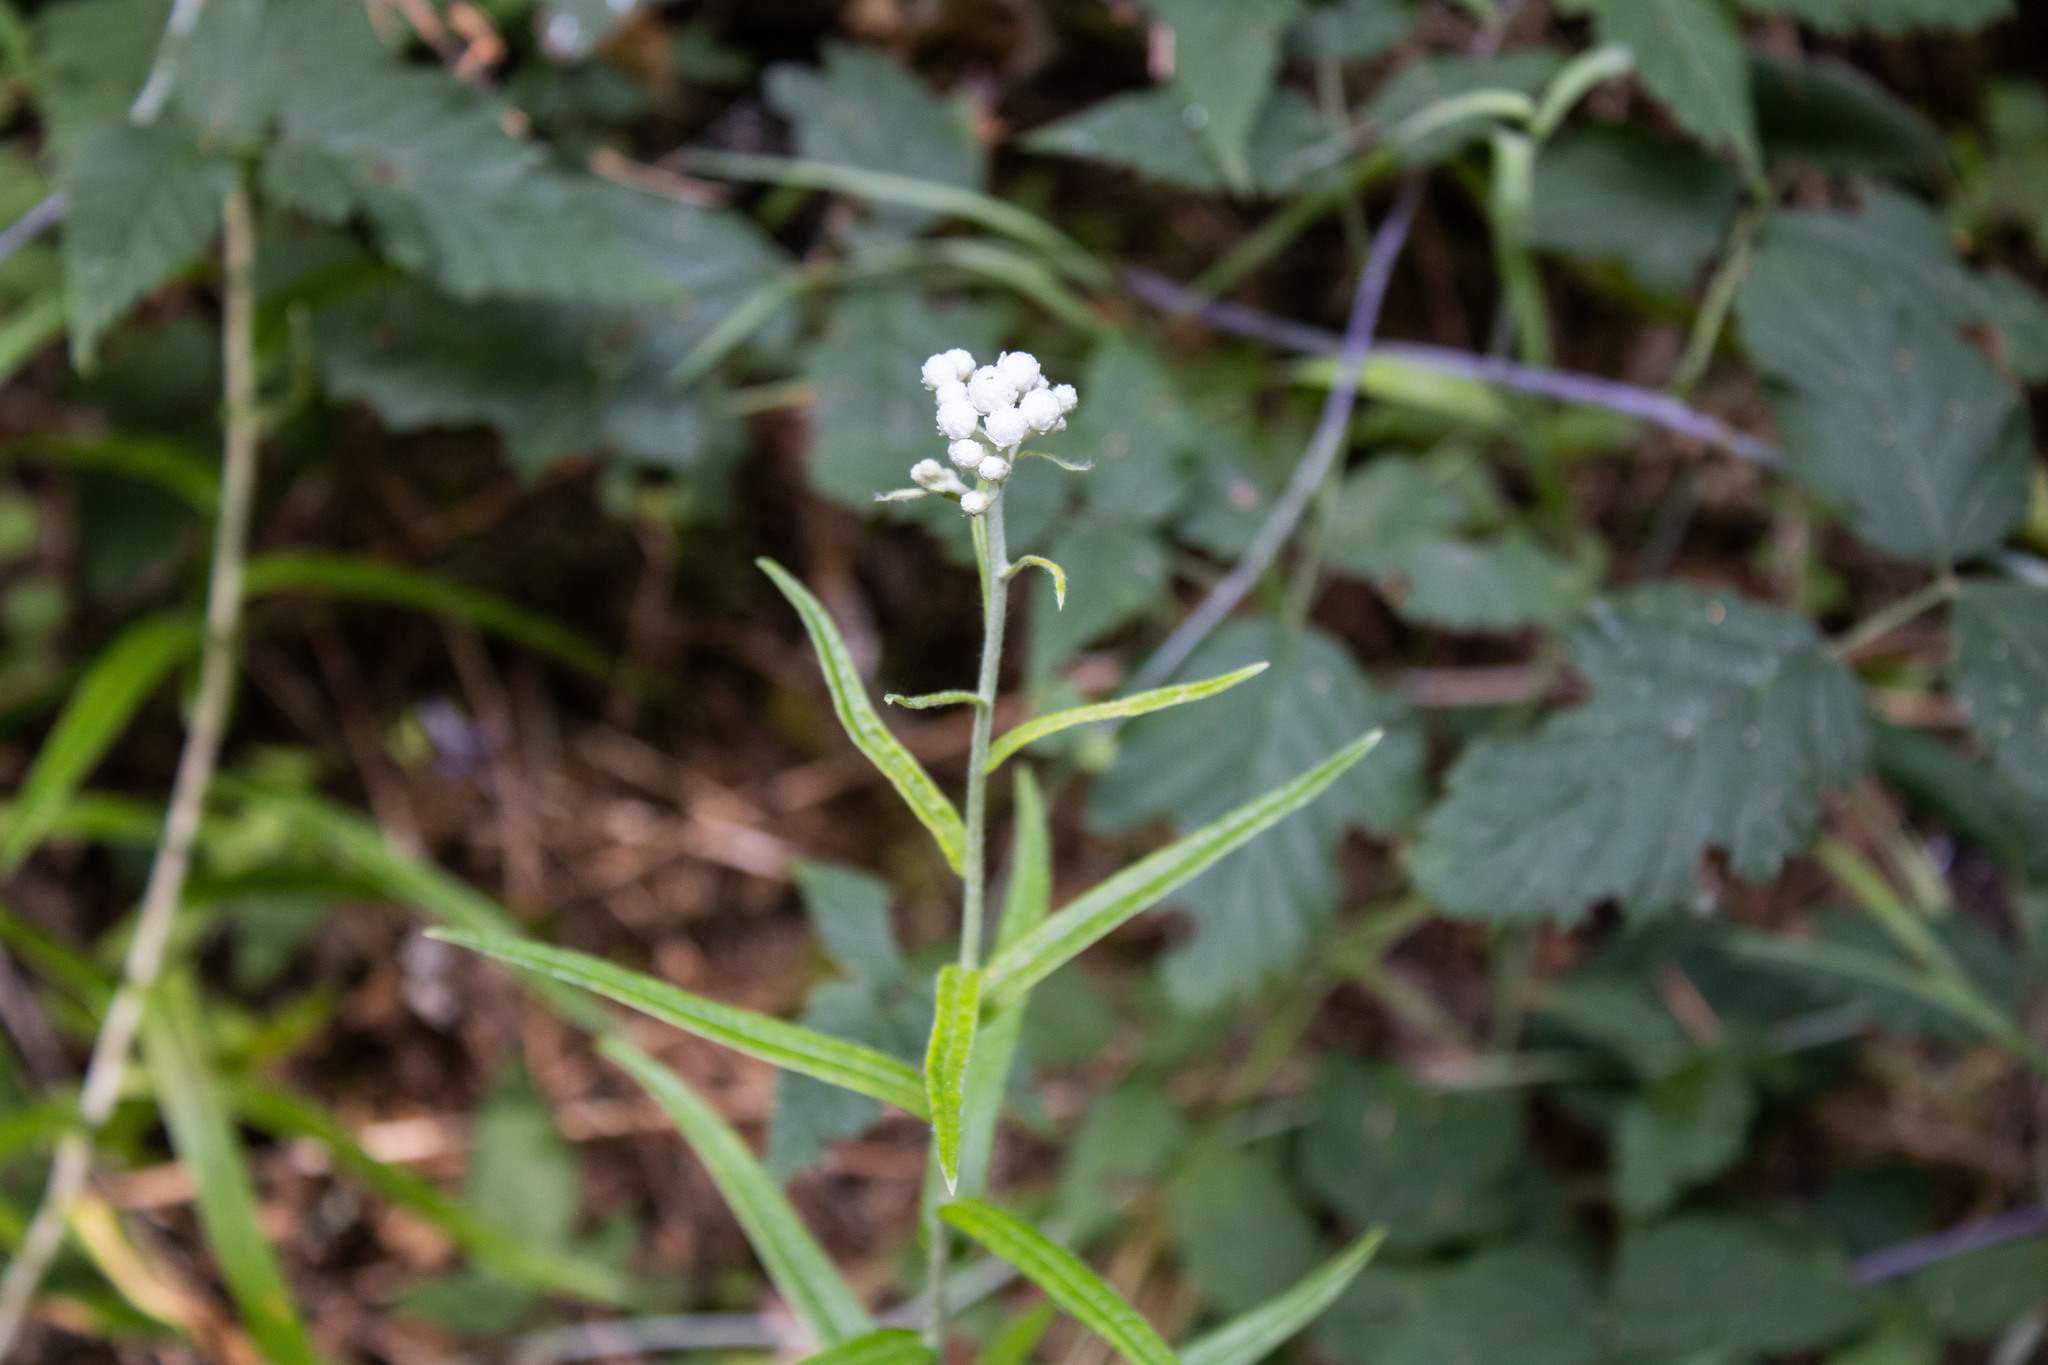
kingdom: Plantae
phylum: Tracheophyta
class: Magnoliopsida
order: Asterales
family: Asteraceae
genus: Anaphalis
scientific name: Anaphalis margaritacea
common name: Pearly everlasting
